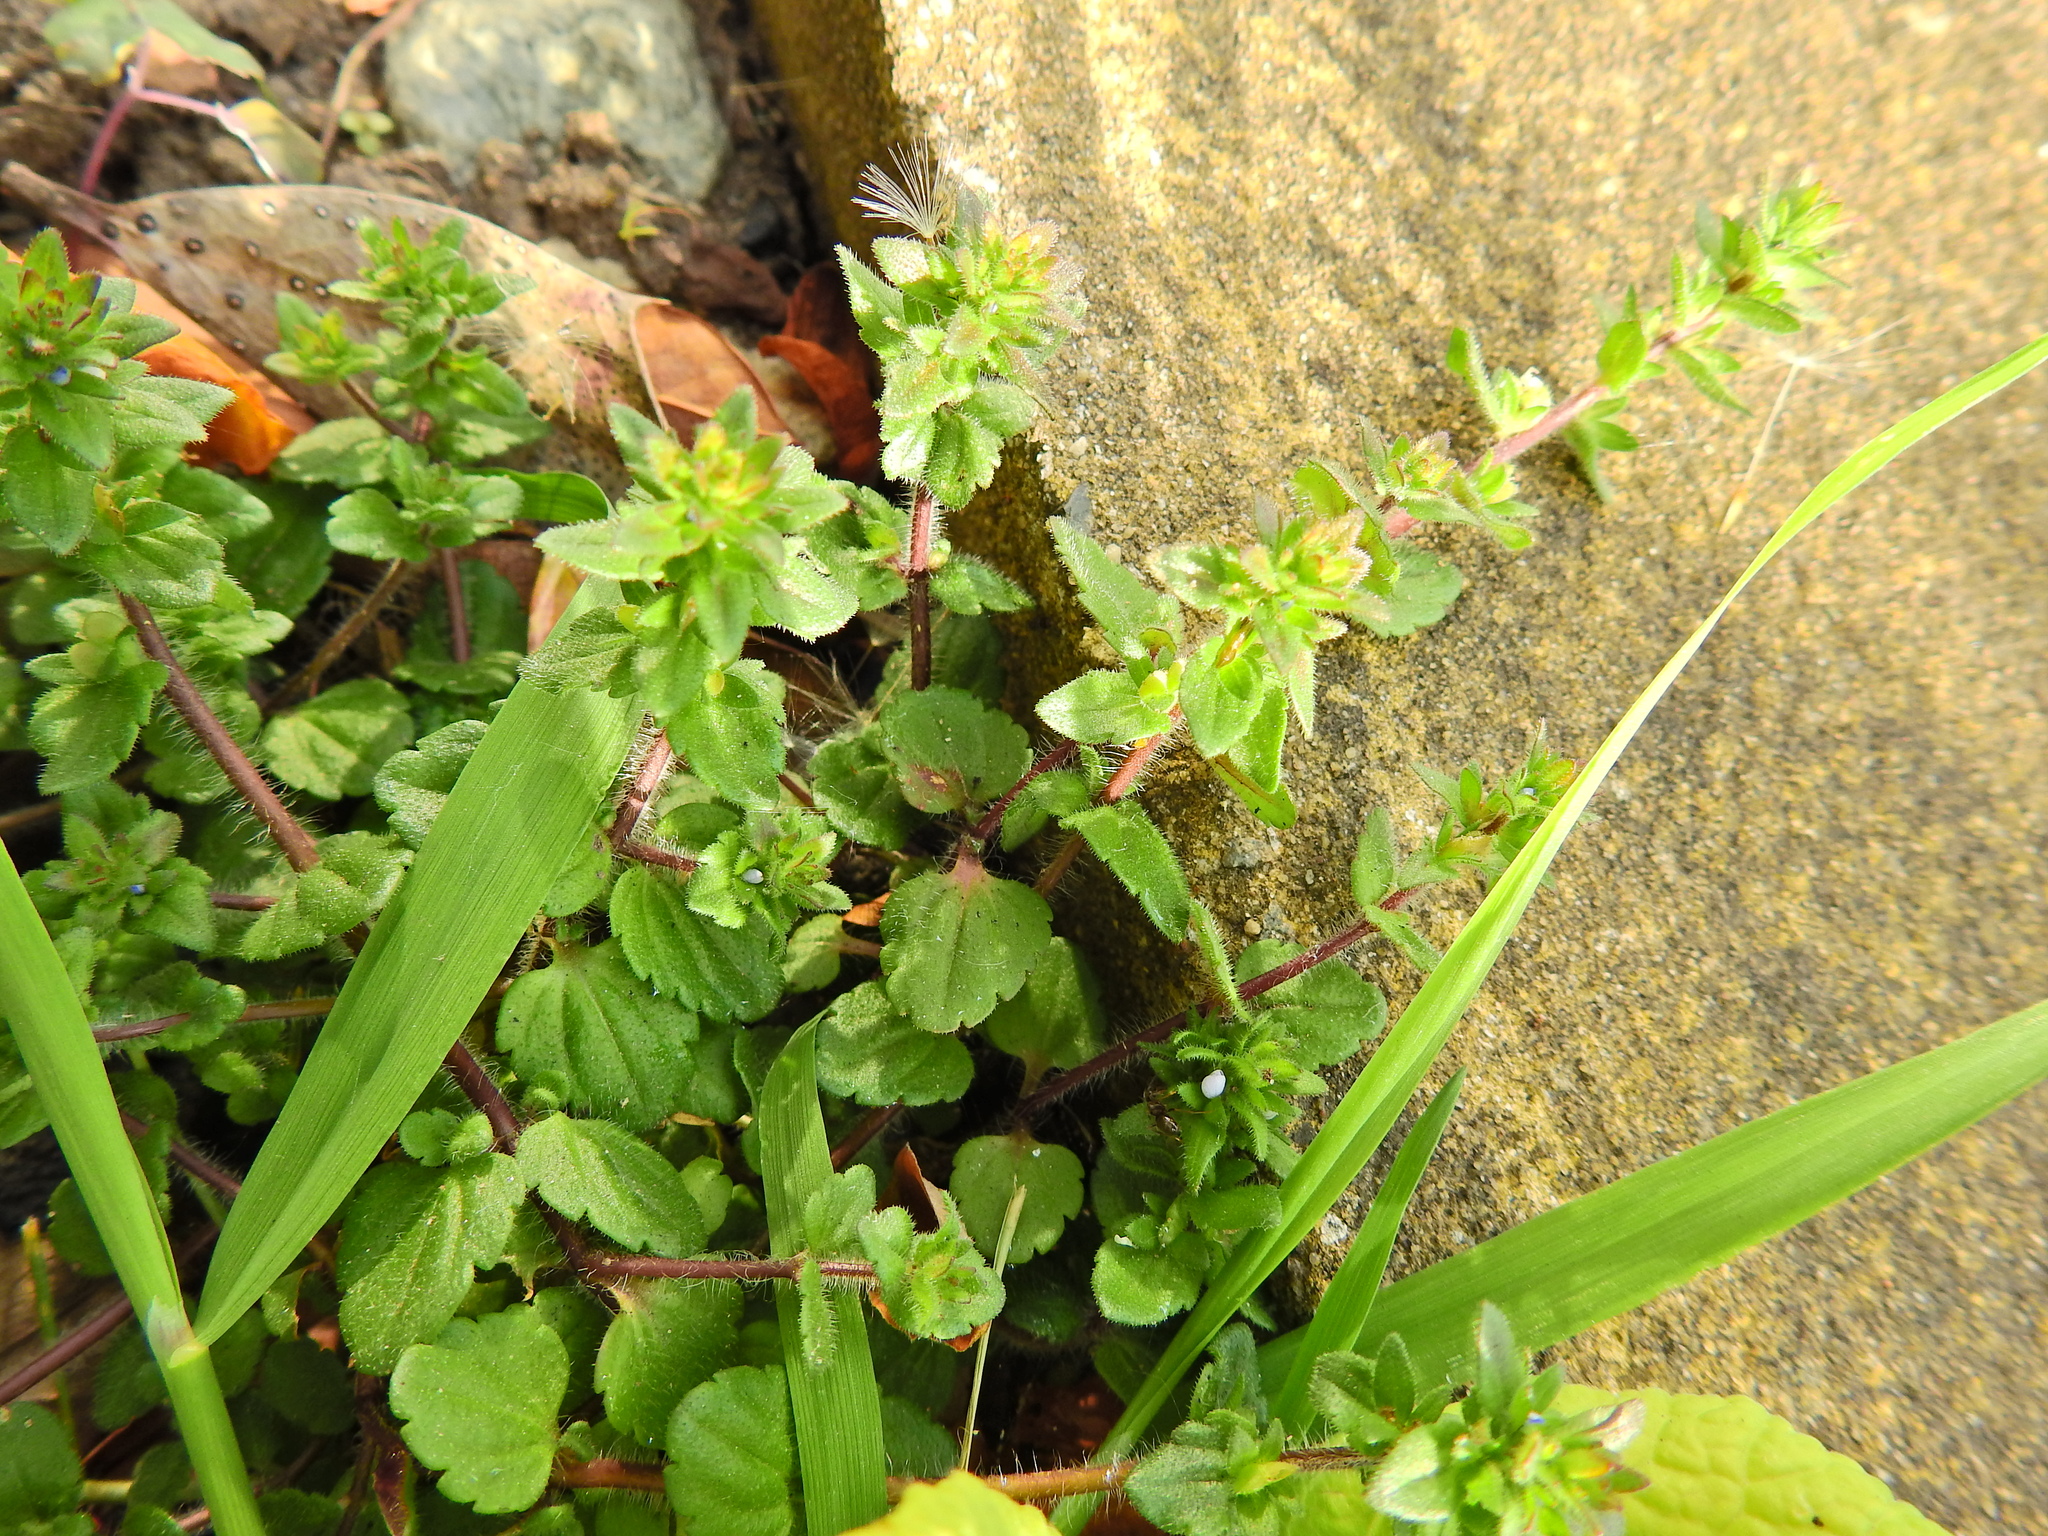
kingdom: Plantae
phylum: Tracheophyta
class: Magnoliopsida
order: Lamiales
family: Plantaginaceae
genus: Veronica
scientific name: Veronica arvensis
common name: Corn speedwell
